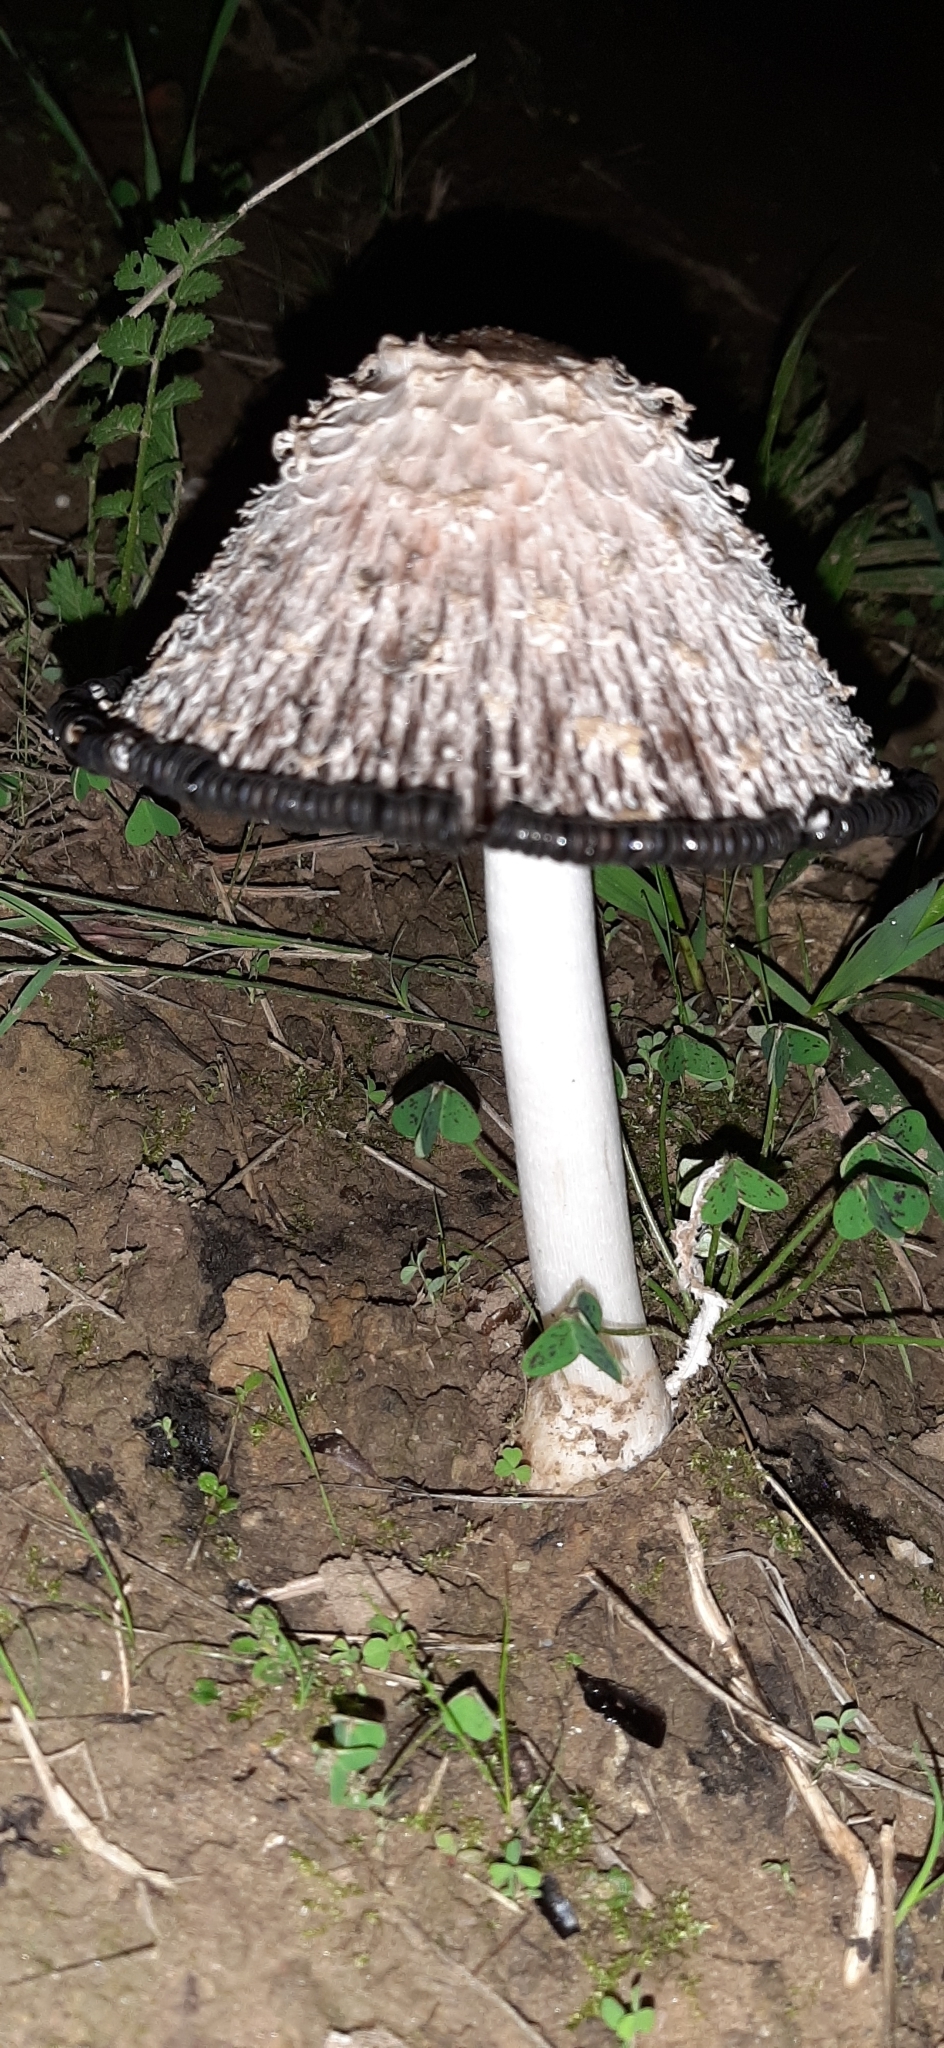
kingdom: Fungi
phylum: Basidiomycota
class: Agaricomycetes
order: Agaricales
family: Agaricaceae
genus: Coprinus
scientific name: Coprinus comatus
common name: Lawyer's wig
